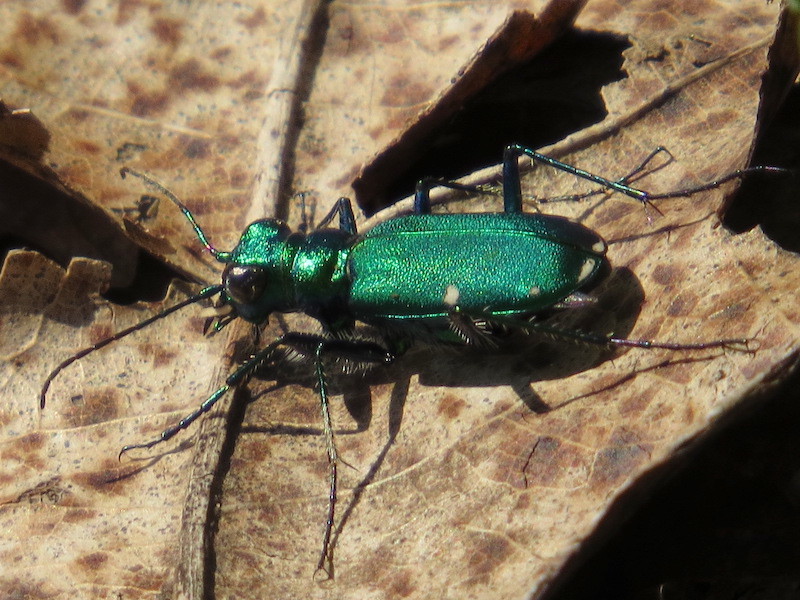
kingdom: Animalia
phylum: Arthropoda
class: Insecta
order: Coleoptera
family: Carabidae
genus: Cicindela
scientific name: Cicindela sexguttata
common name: Six-spotted tiger beetle
